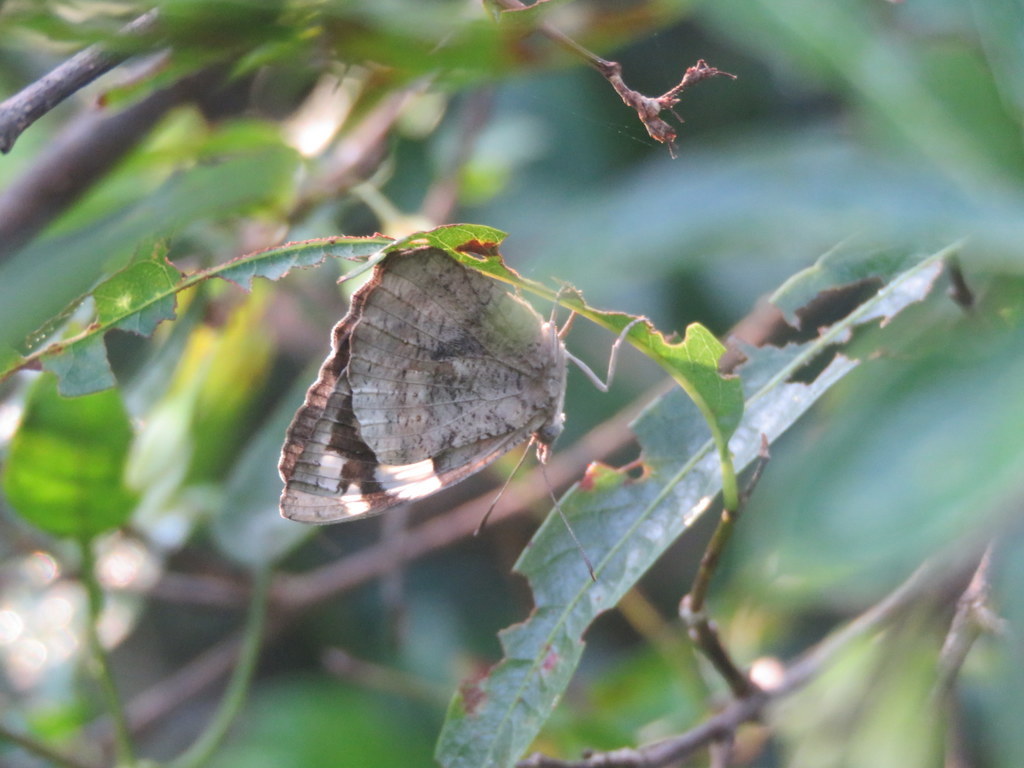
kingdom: Animalia
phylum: Arthropoda
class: Insecta
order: Lepidoptera
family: Nymphalidae
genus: Eunica
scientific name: Eunica eburnea
